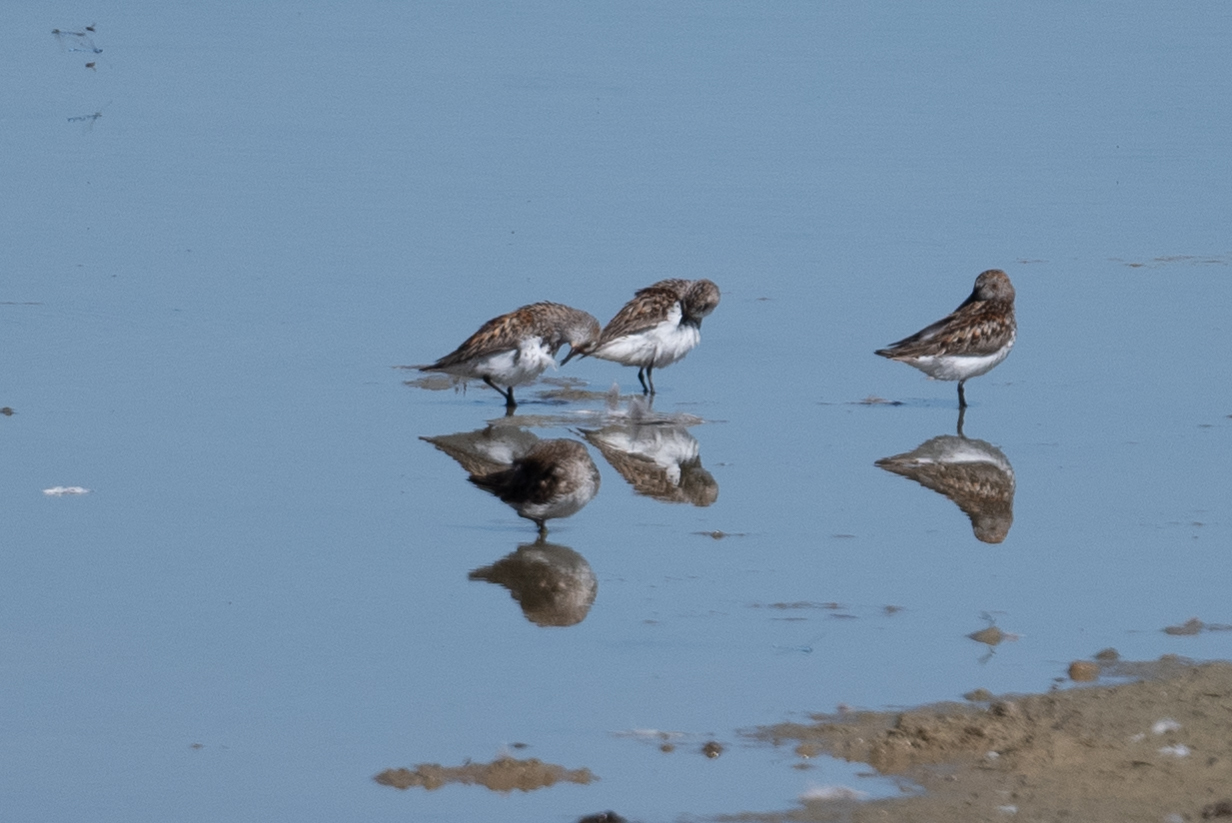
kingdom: Animalia
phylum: Chordata
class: Aves
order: Charadriiformes
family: Scolopacidae
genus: Calidris
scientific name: Calidris mauri
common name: Western sandpiper
